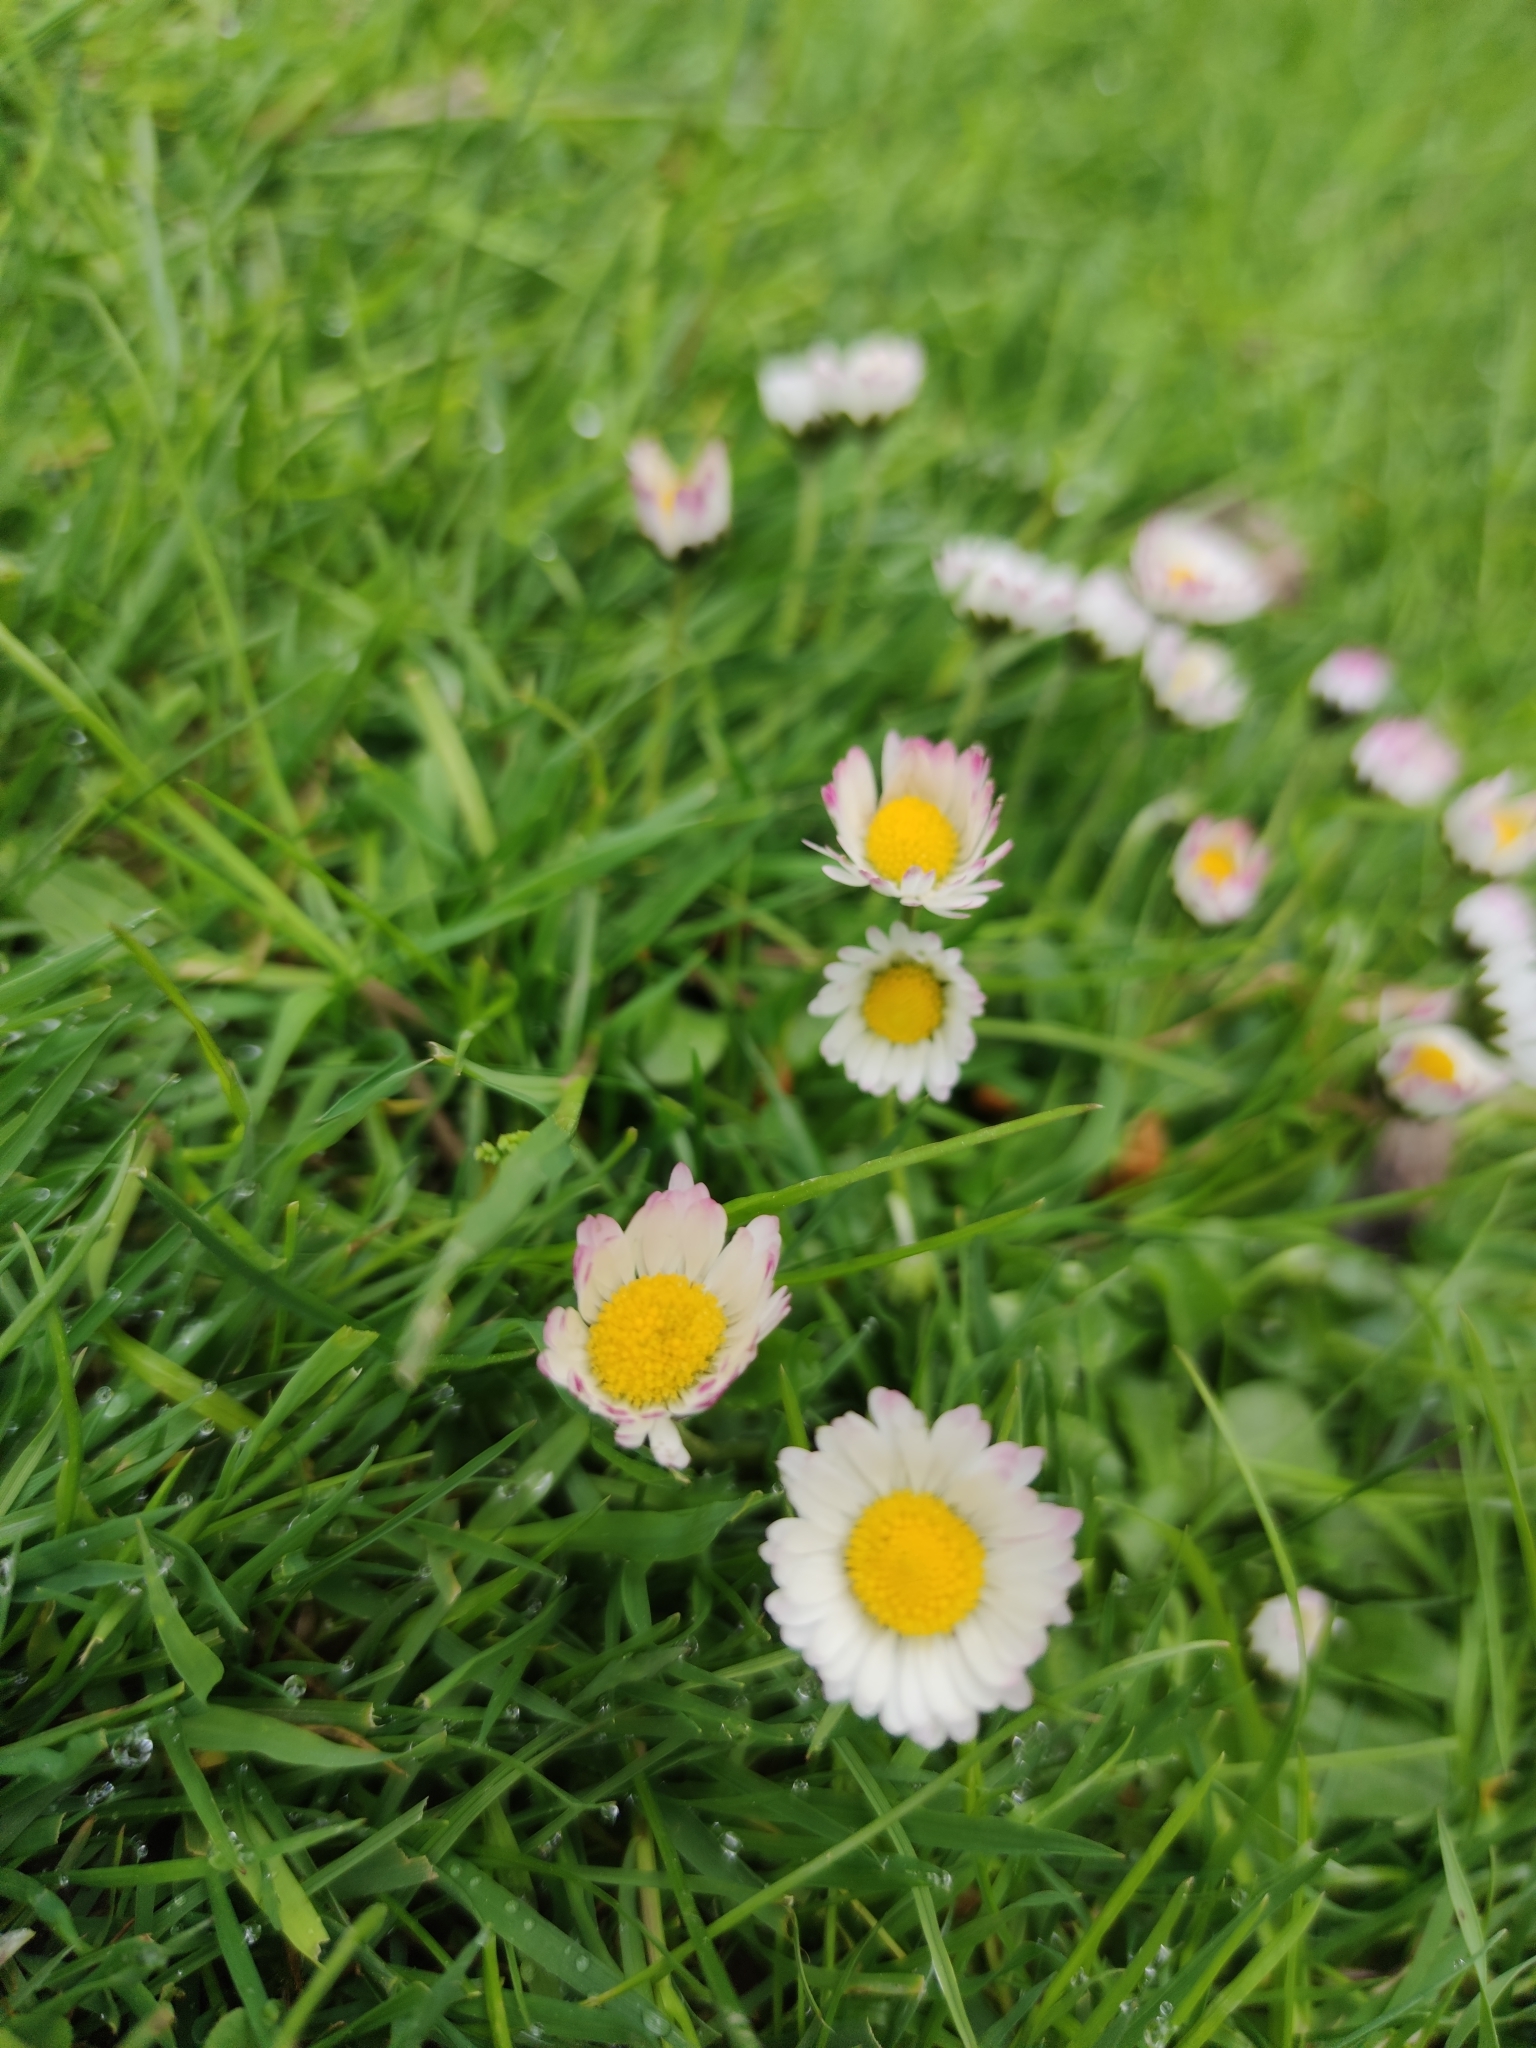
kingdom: Plantae
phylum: Tracheophyta
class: Magnoliopsida
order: Asterales
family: Asteraceae
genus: Bellis
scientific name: Bellis perennis
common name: Lawndaisy
